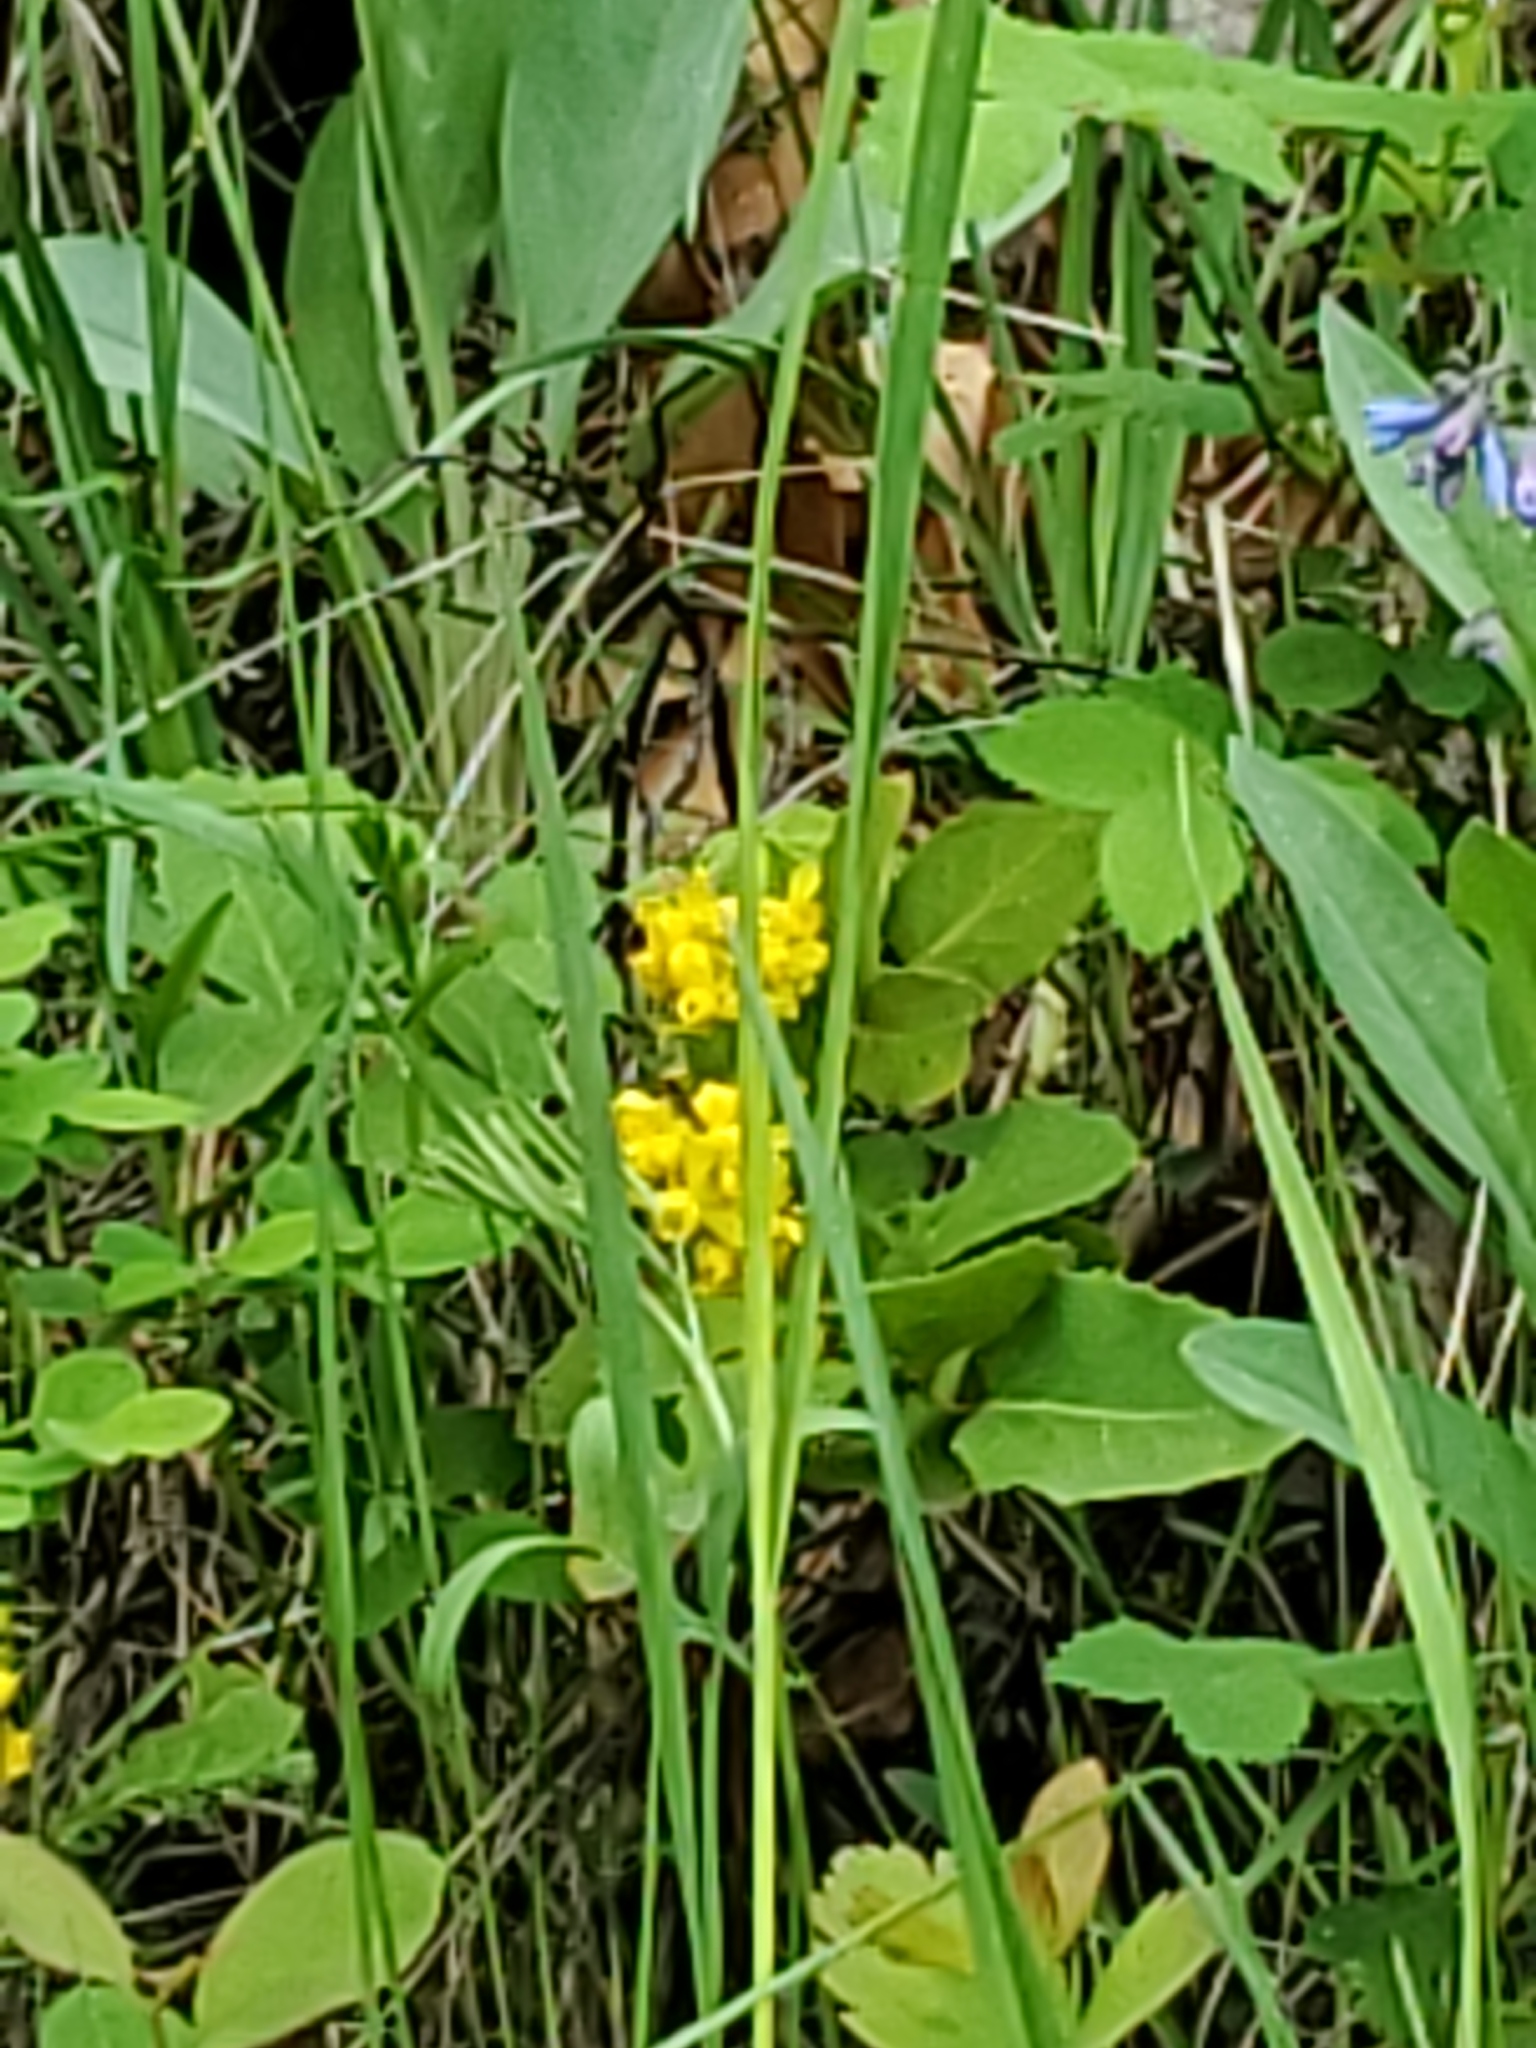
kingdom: Plantae
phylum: Tracheophyta
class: Magnoliopsida
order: Ranunculales
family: Berberidaceae
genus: Mahonia
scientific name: Mahonia repens
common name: Creeping oregon-grape
